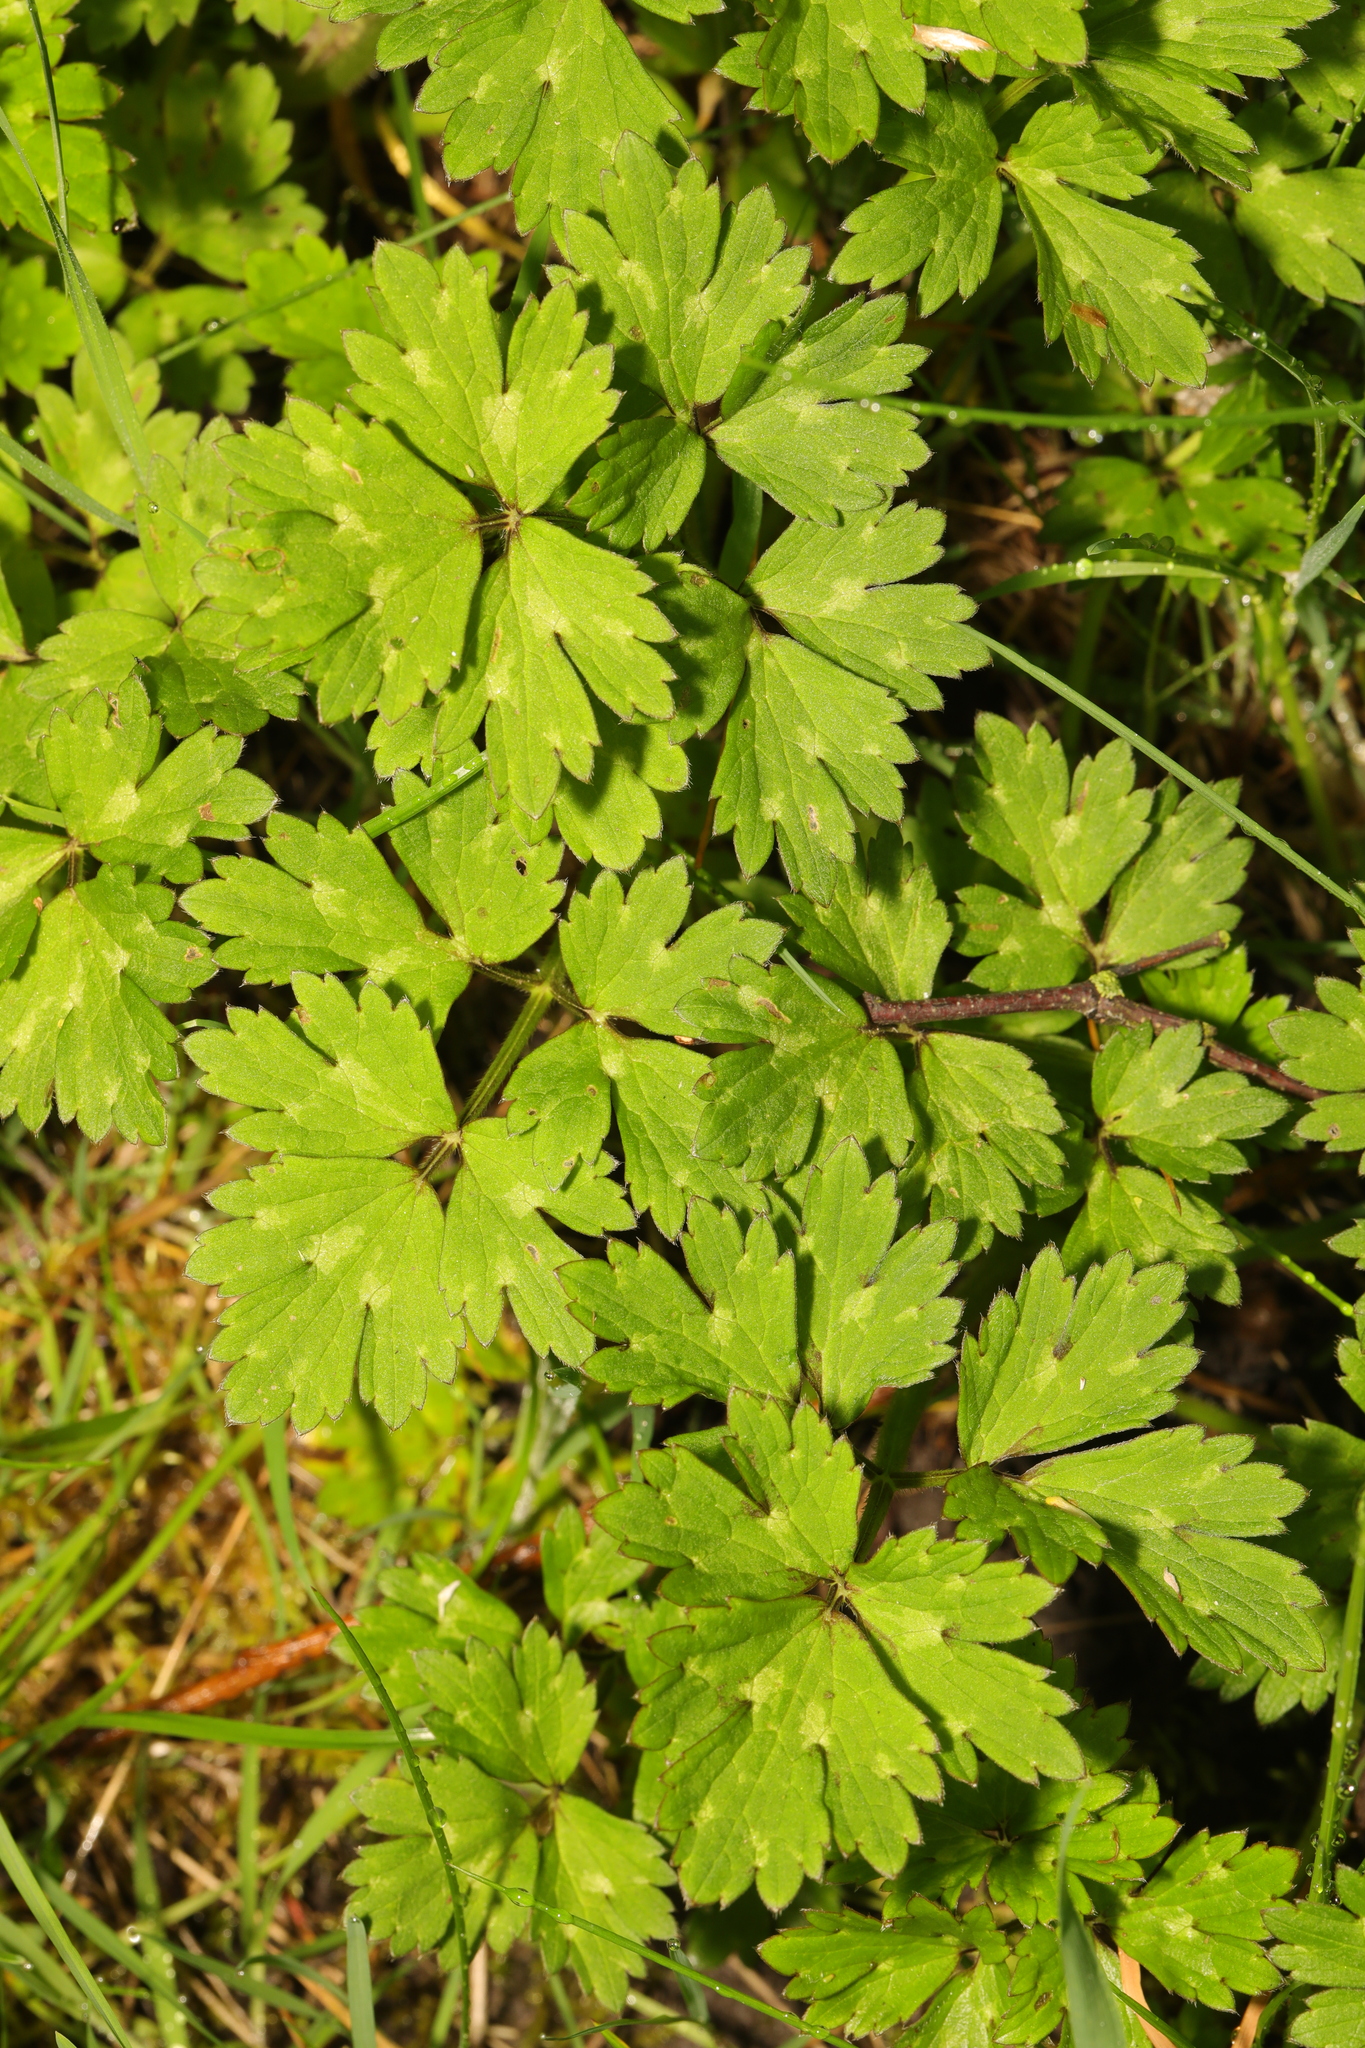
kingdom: Plantae
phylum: Tracheophyta
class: Magnoliopsida
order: Ranunculales
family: Ranunculaceae
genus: Ranunculus
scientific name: Ranunculus repens
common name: Creeping buttercup
